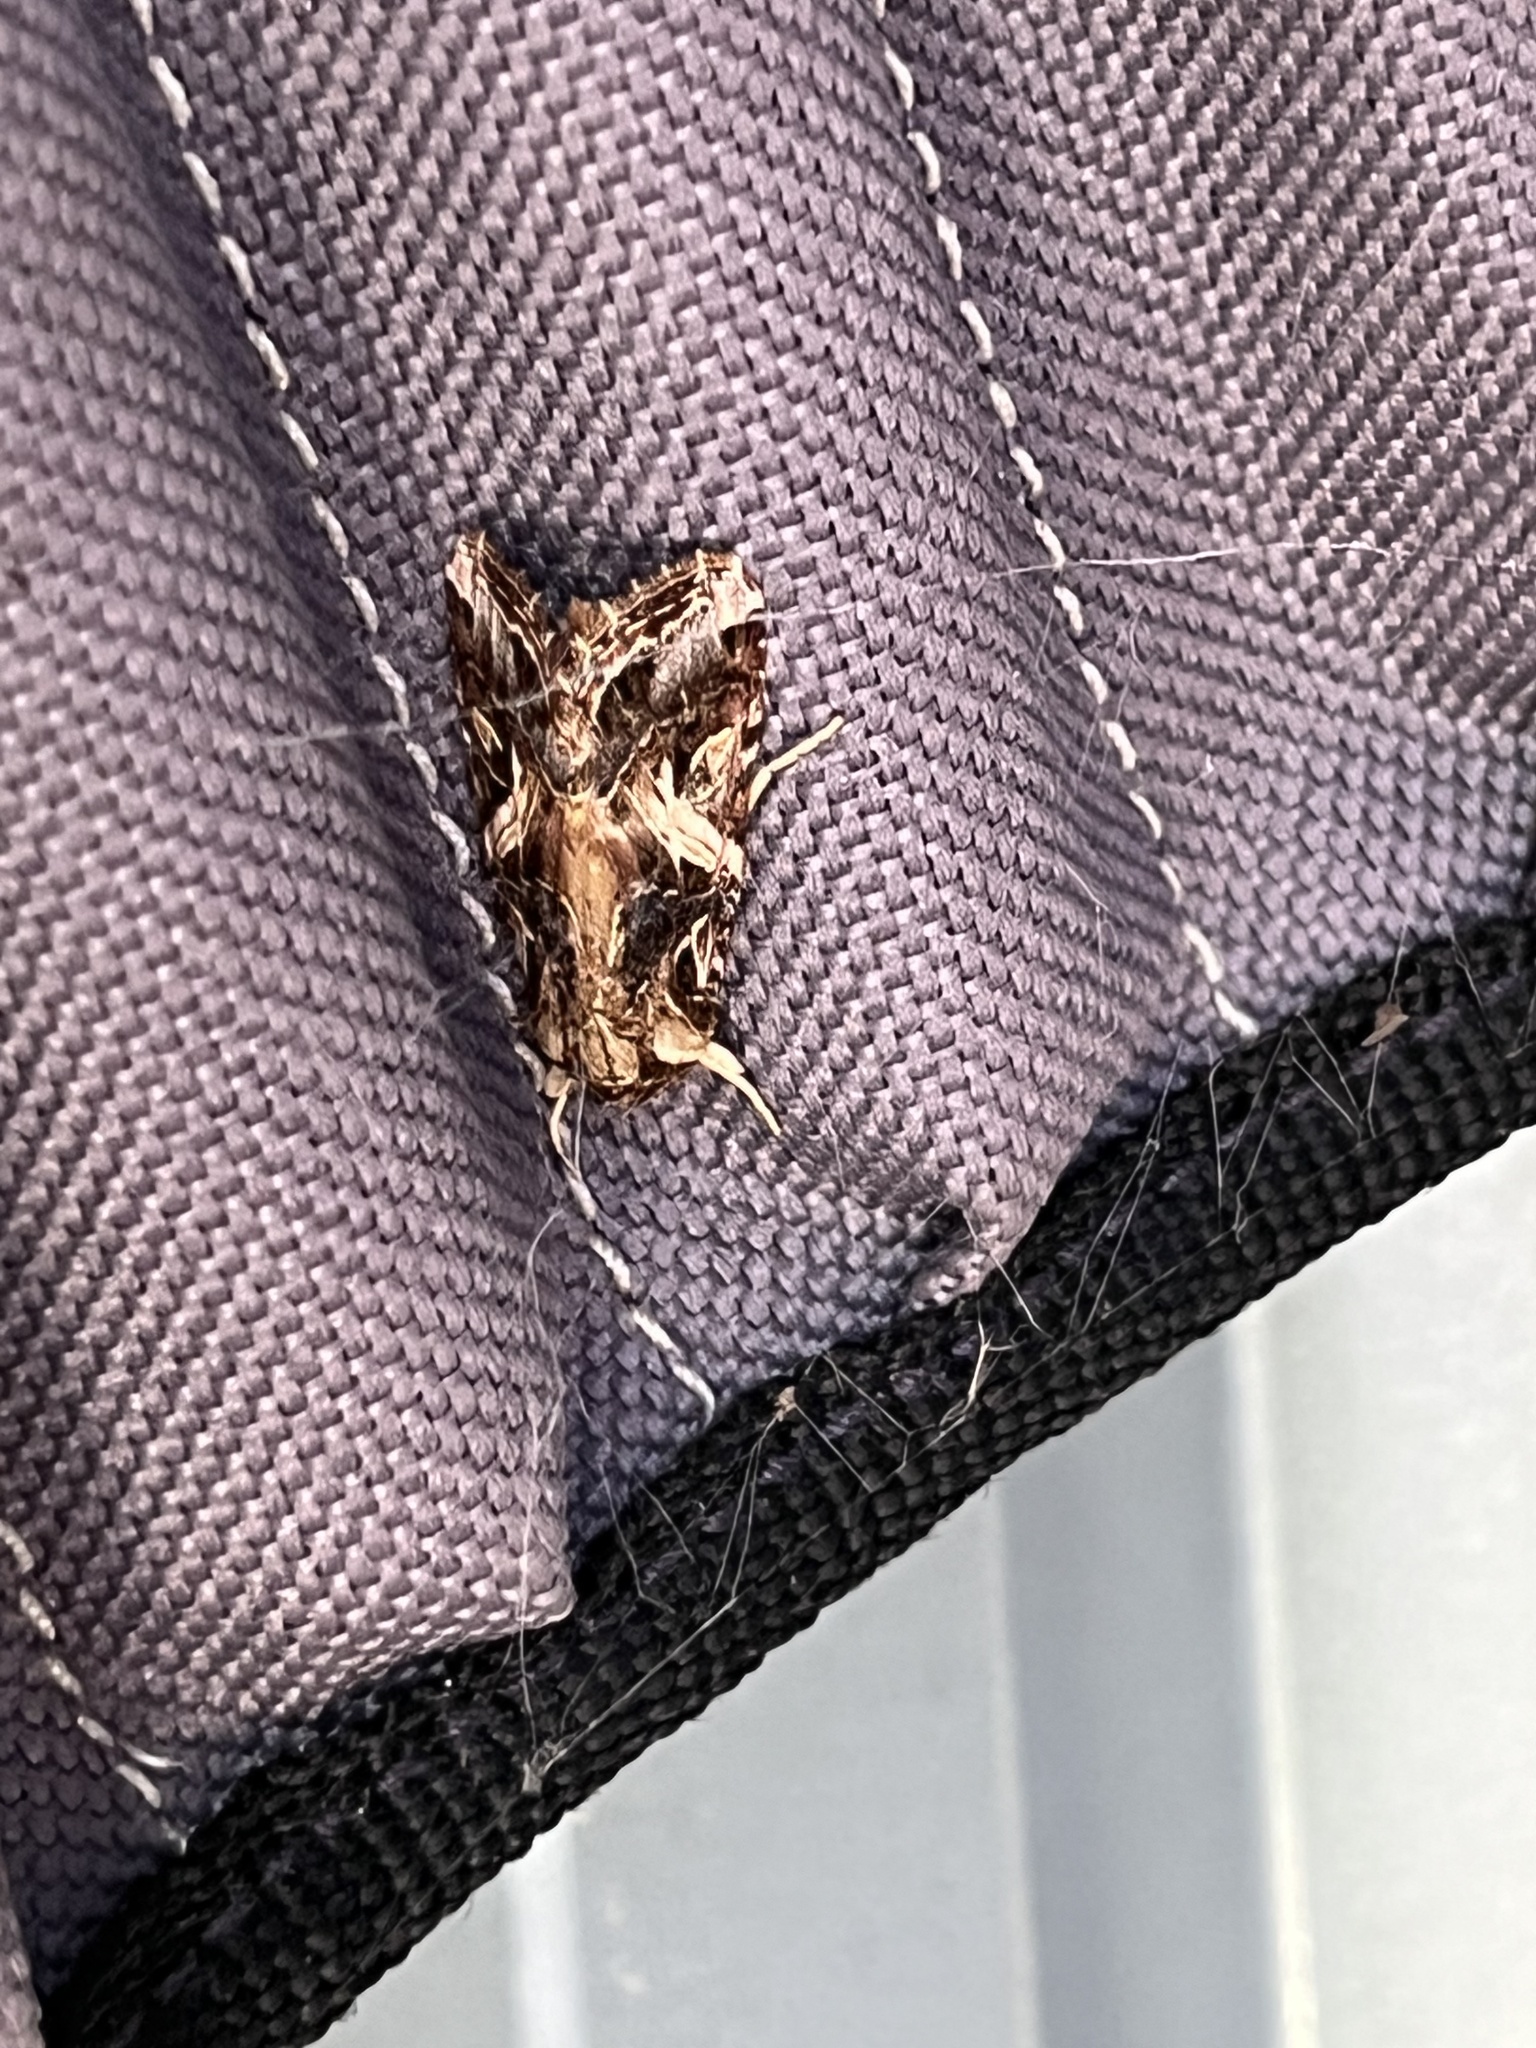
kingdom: Animalia
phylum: Arthropoda
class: Insecta
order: Lepidoptera
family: Noctuidae
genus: Spodoptera
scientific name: Spodoptera litura
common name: Asian cotton leafworm
